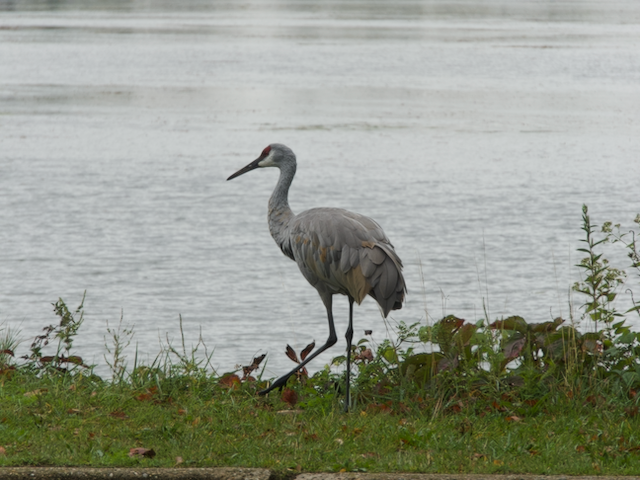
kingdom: Animalia
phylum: Chordata
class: Aves
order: Gruiformes
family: Gruidae
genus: Grus
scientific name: Grus canadensis
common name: Sandhill crane
